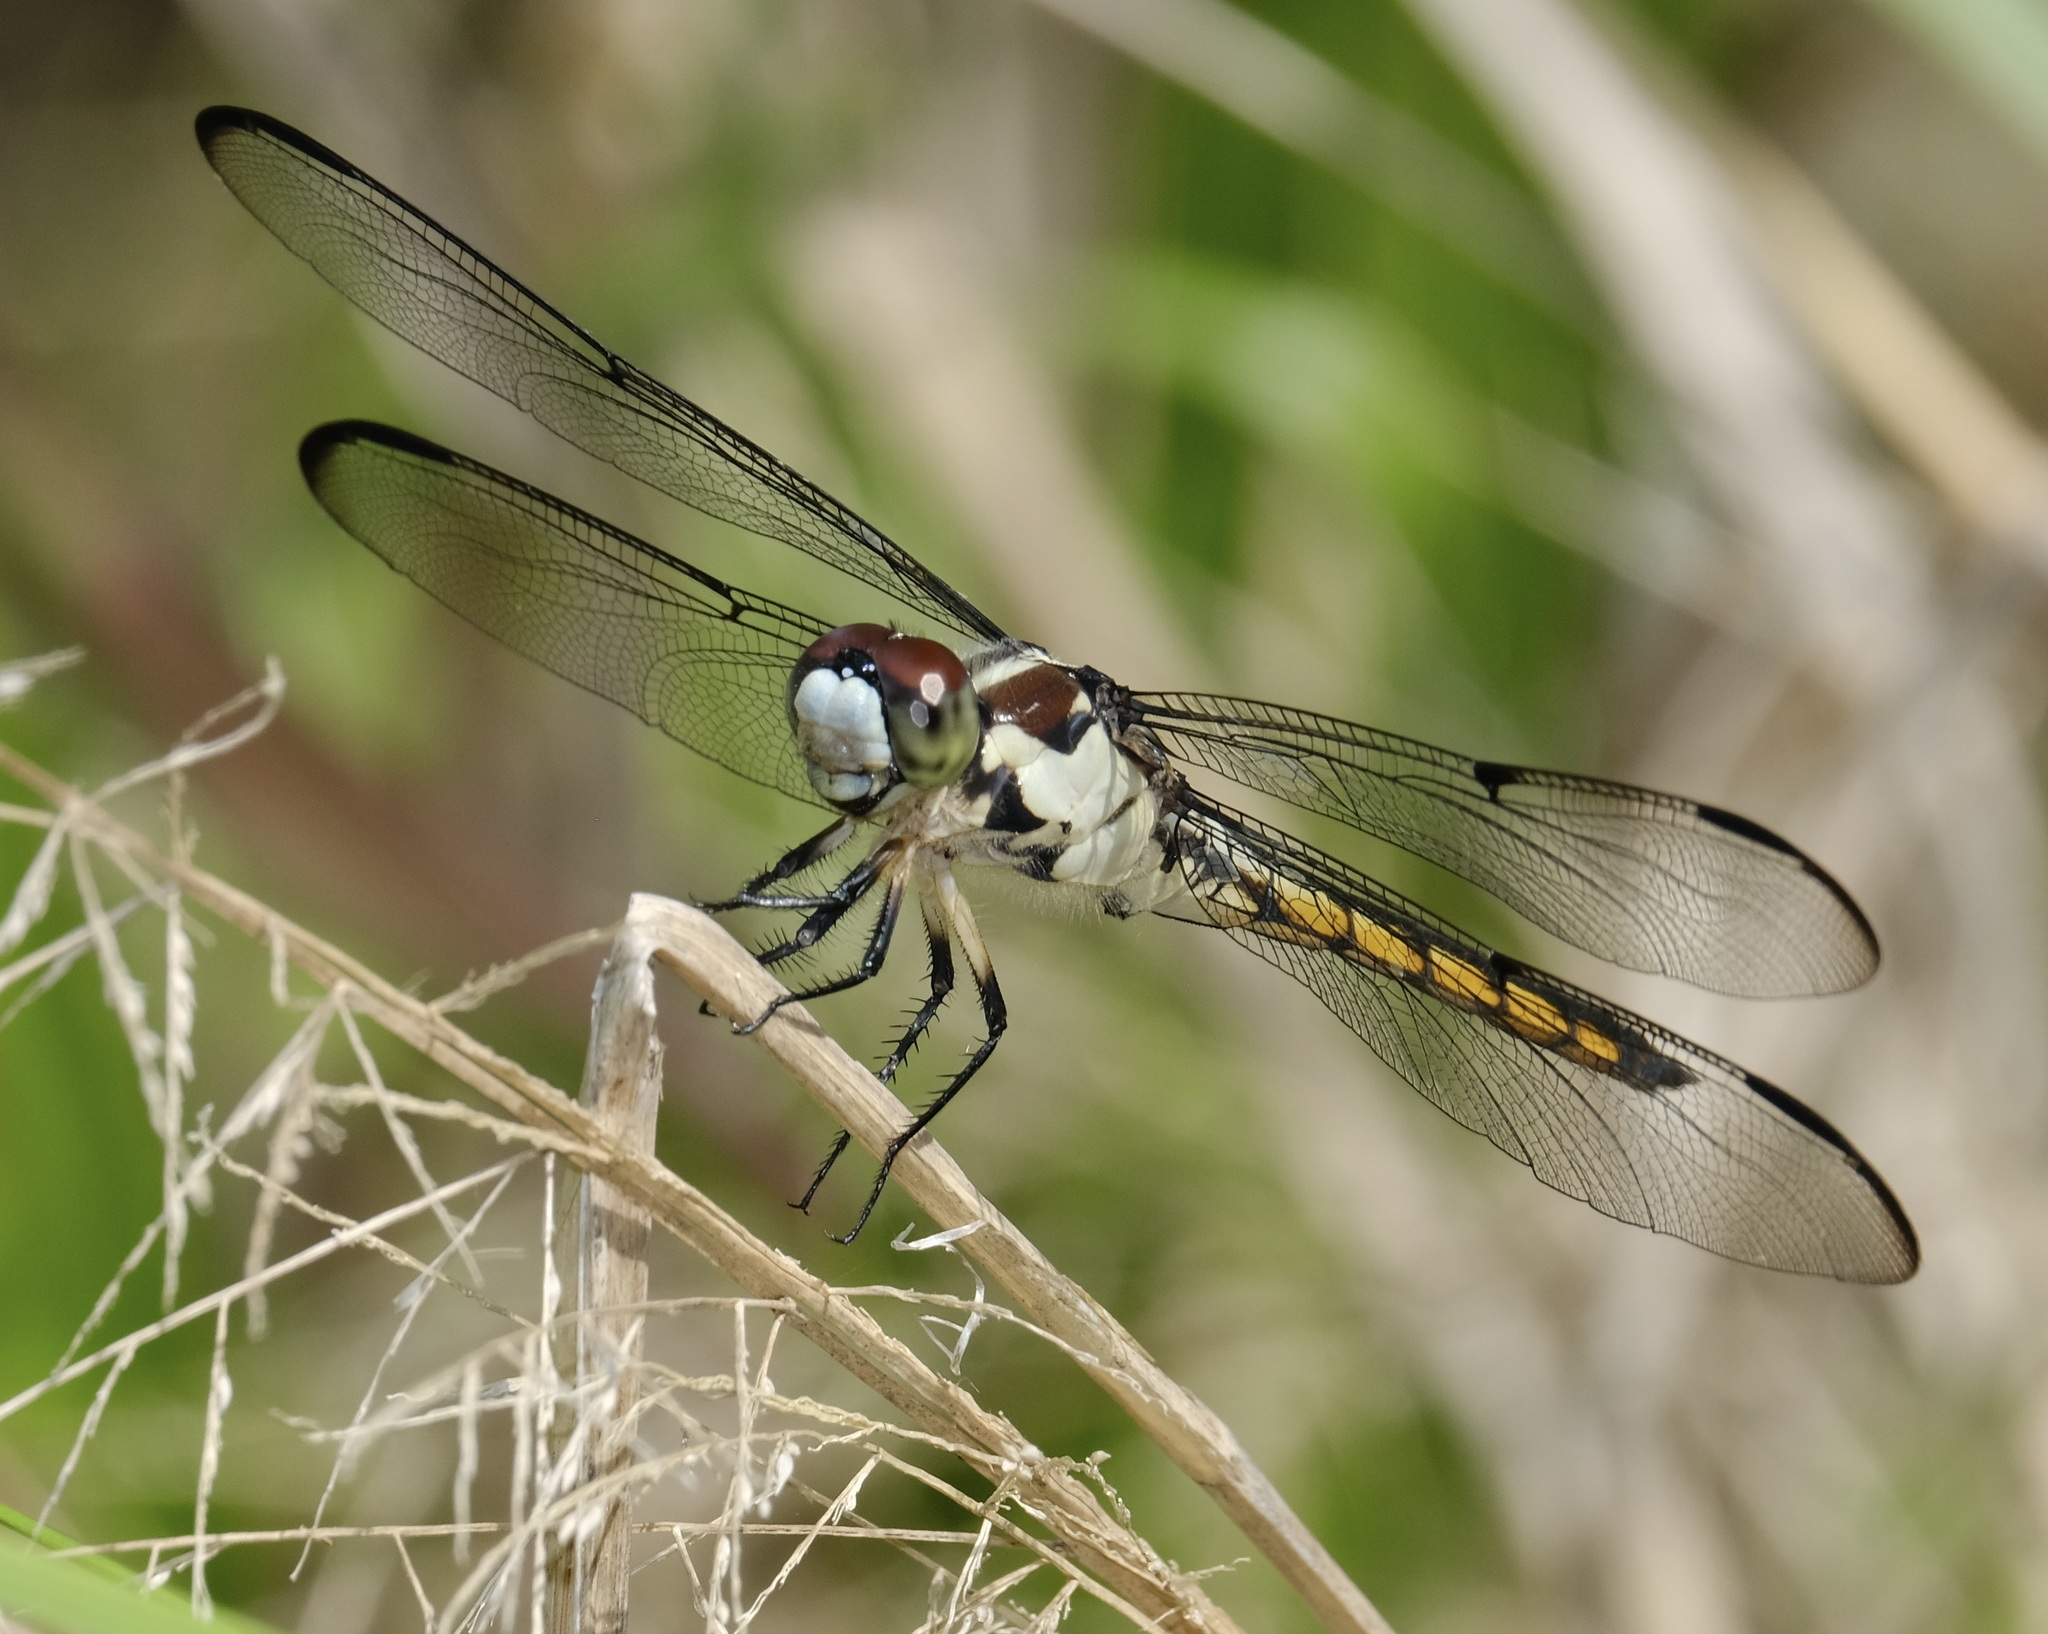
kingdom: Animalia
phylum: Arthropoda
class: Insecta
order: Odonata
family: Libellulidae
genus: Libellula
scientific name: Libellula vibrans
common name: Great blue skimmer
